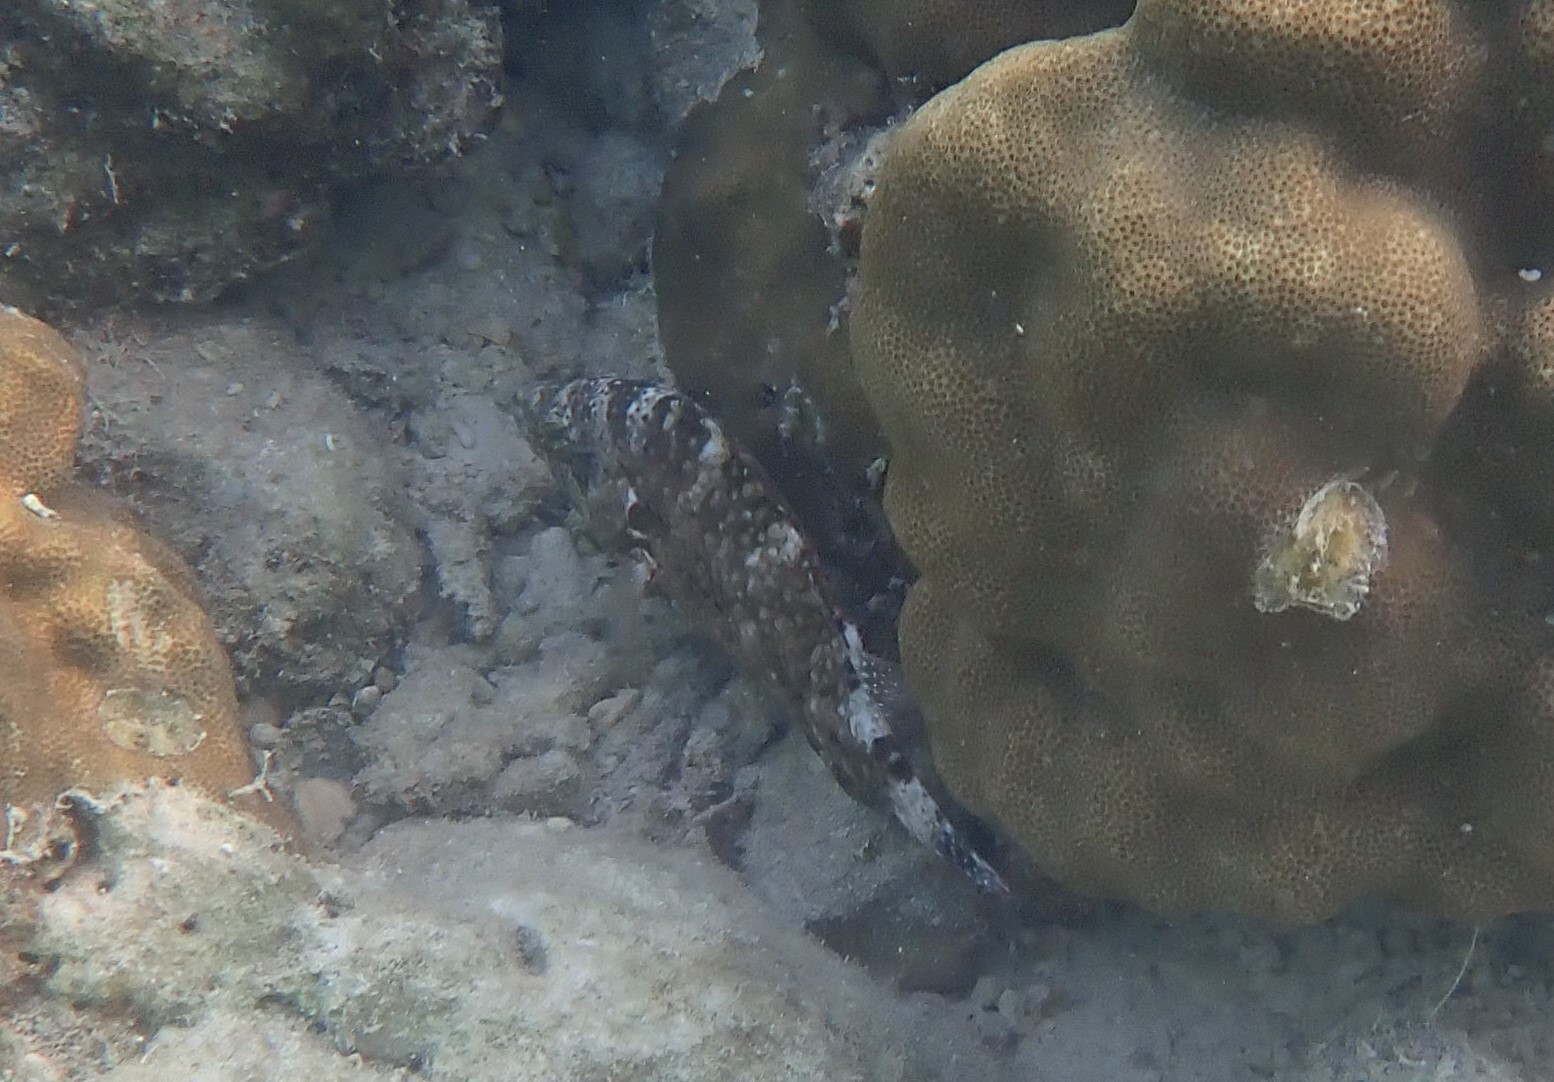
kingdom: Animalia
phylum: Chordata
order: Perciformes
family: Labridae
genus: Cheilinus
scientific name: Cheilinus chlorourus
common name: Floral wrasse
